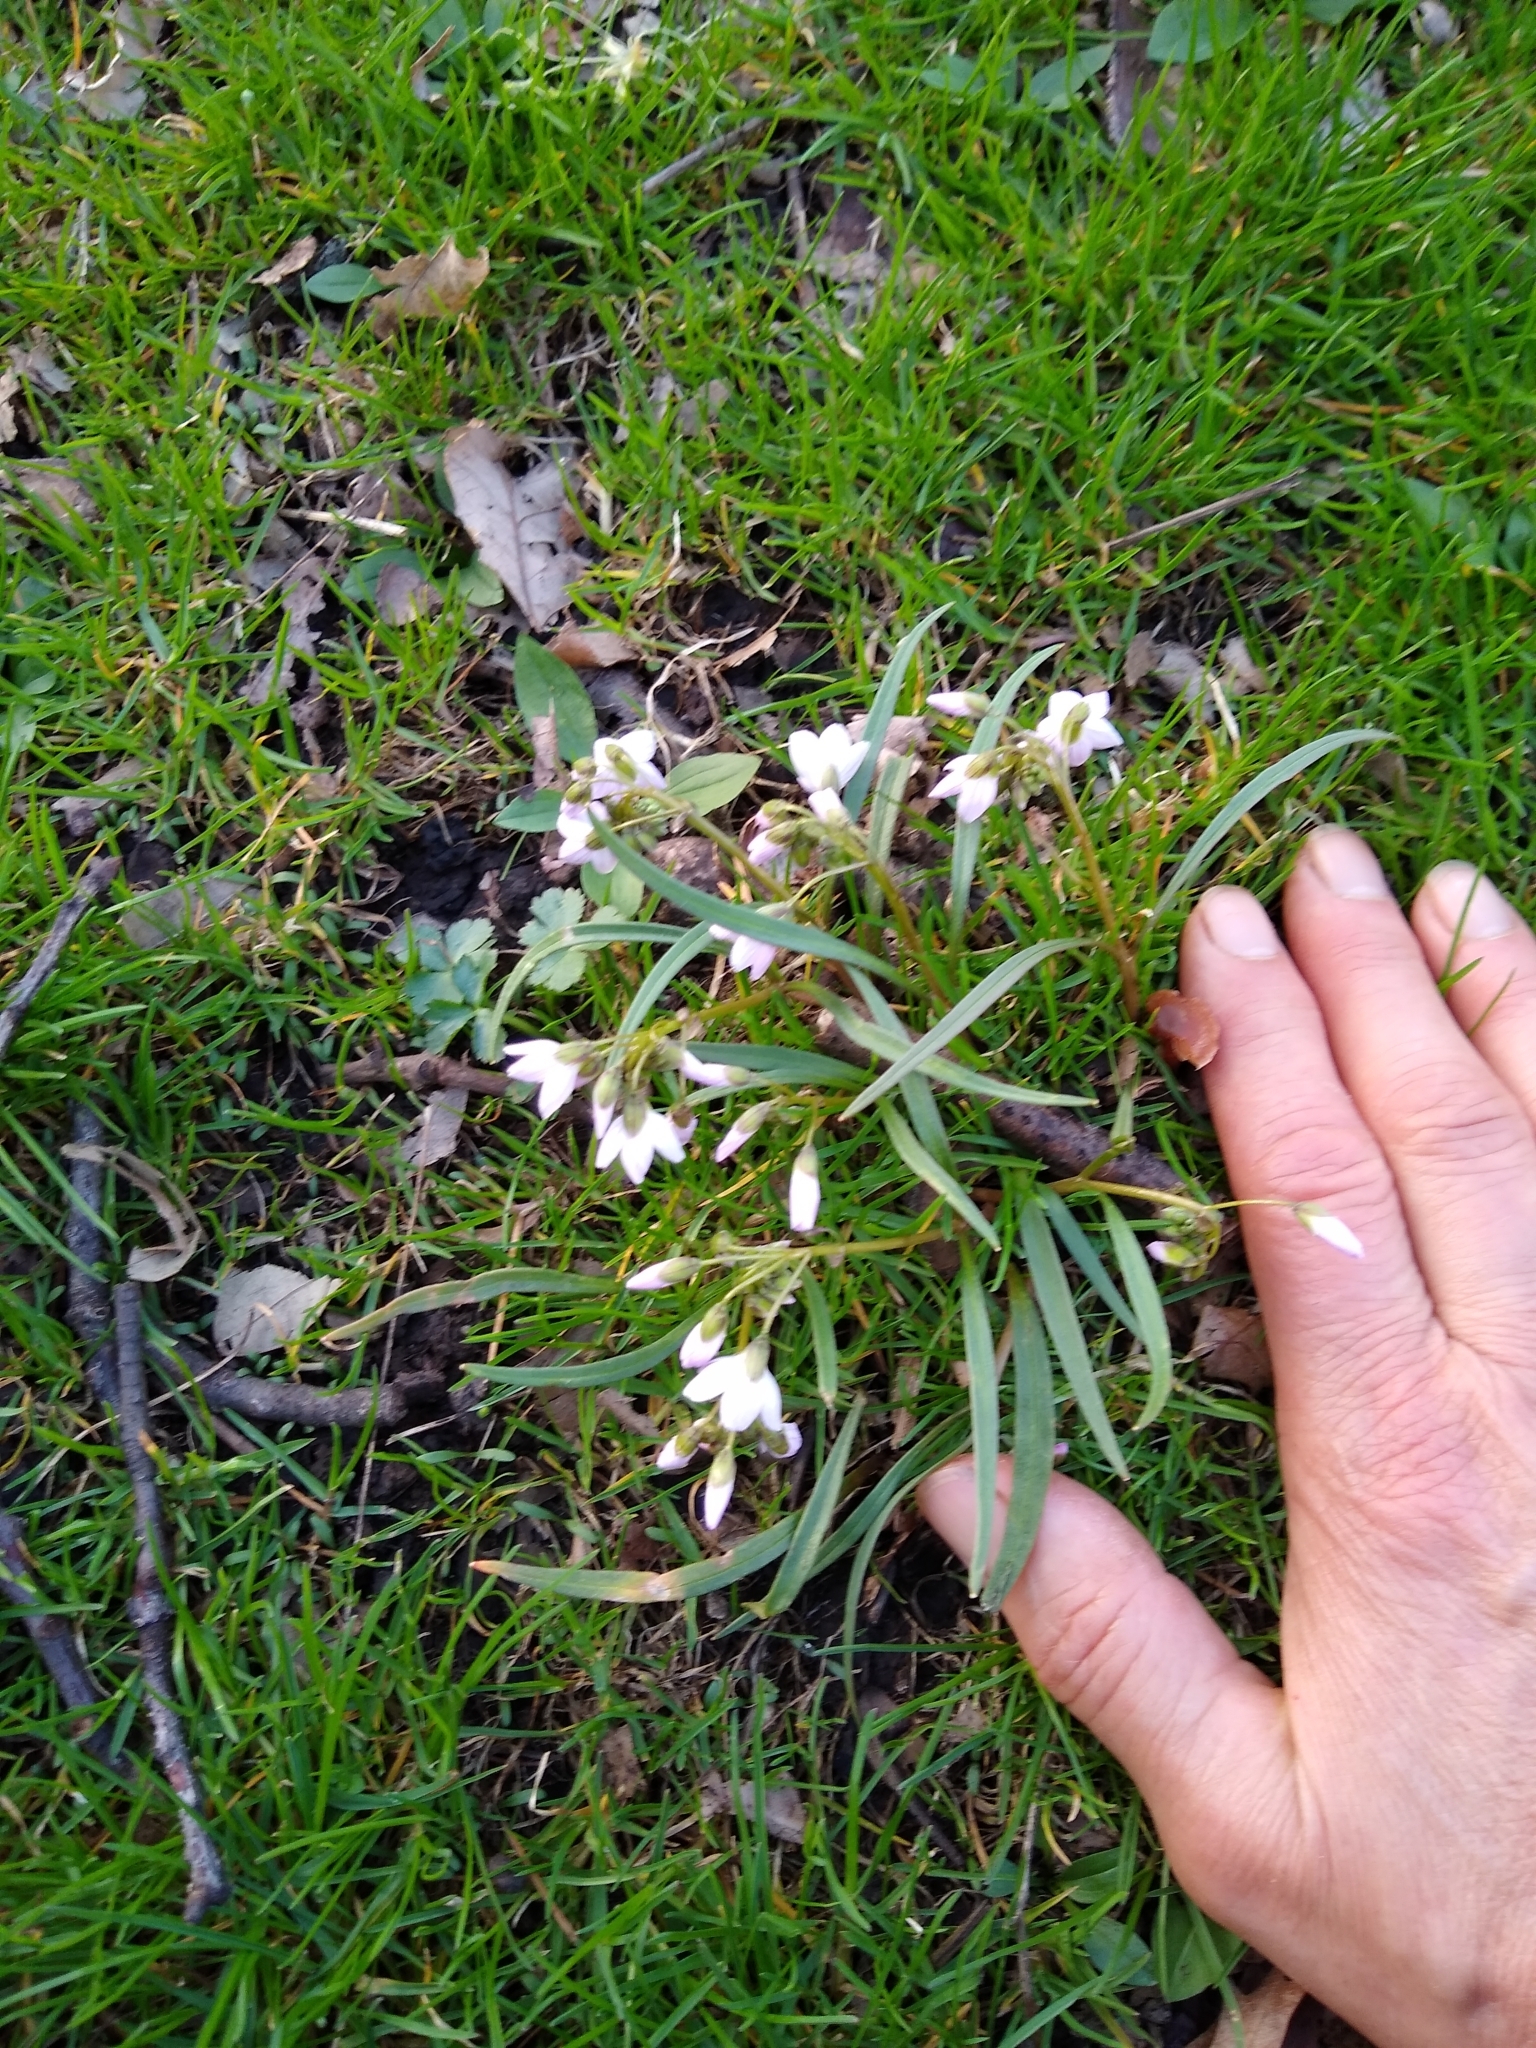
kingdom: Plantae
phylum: Tracheophyta
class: Magnoliopsida
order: Caryophyllales
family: Montiaceae
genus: Claytonia
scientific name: Claytonia virginica
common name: Virginia springbeauty
